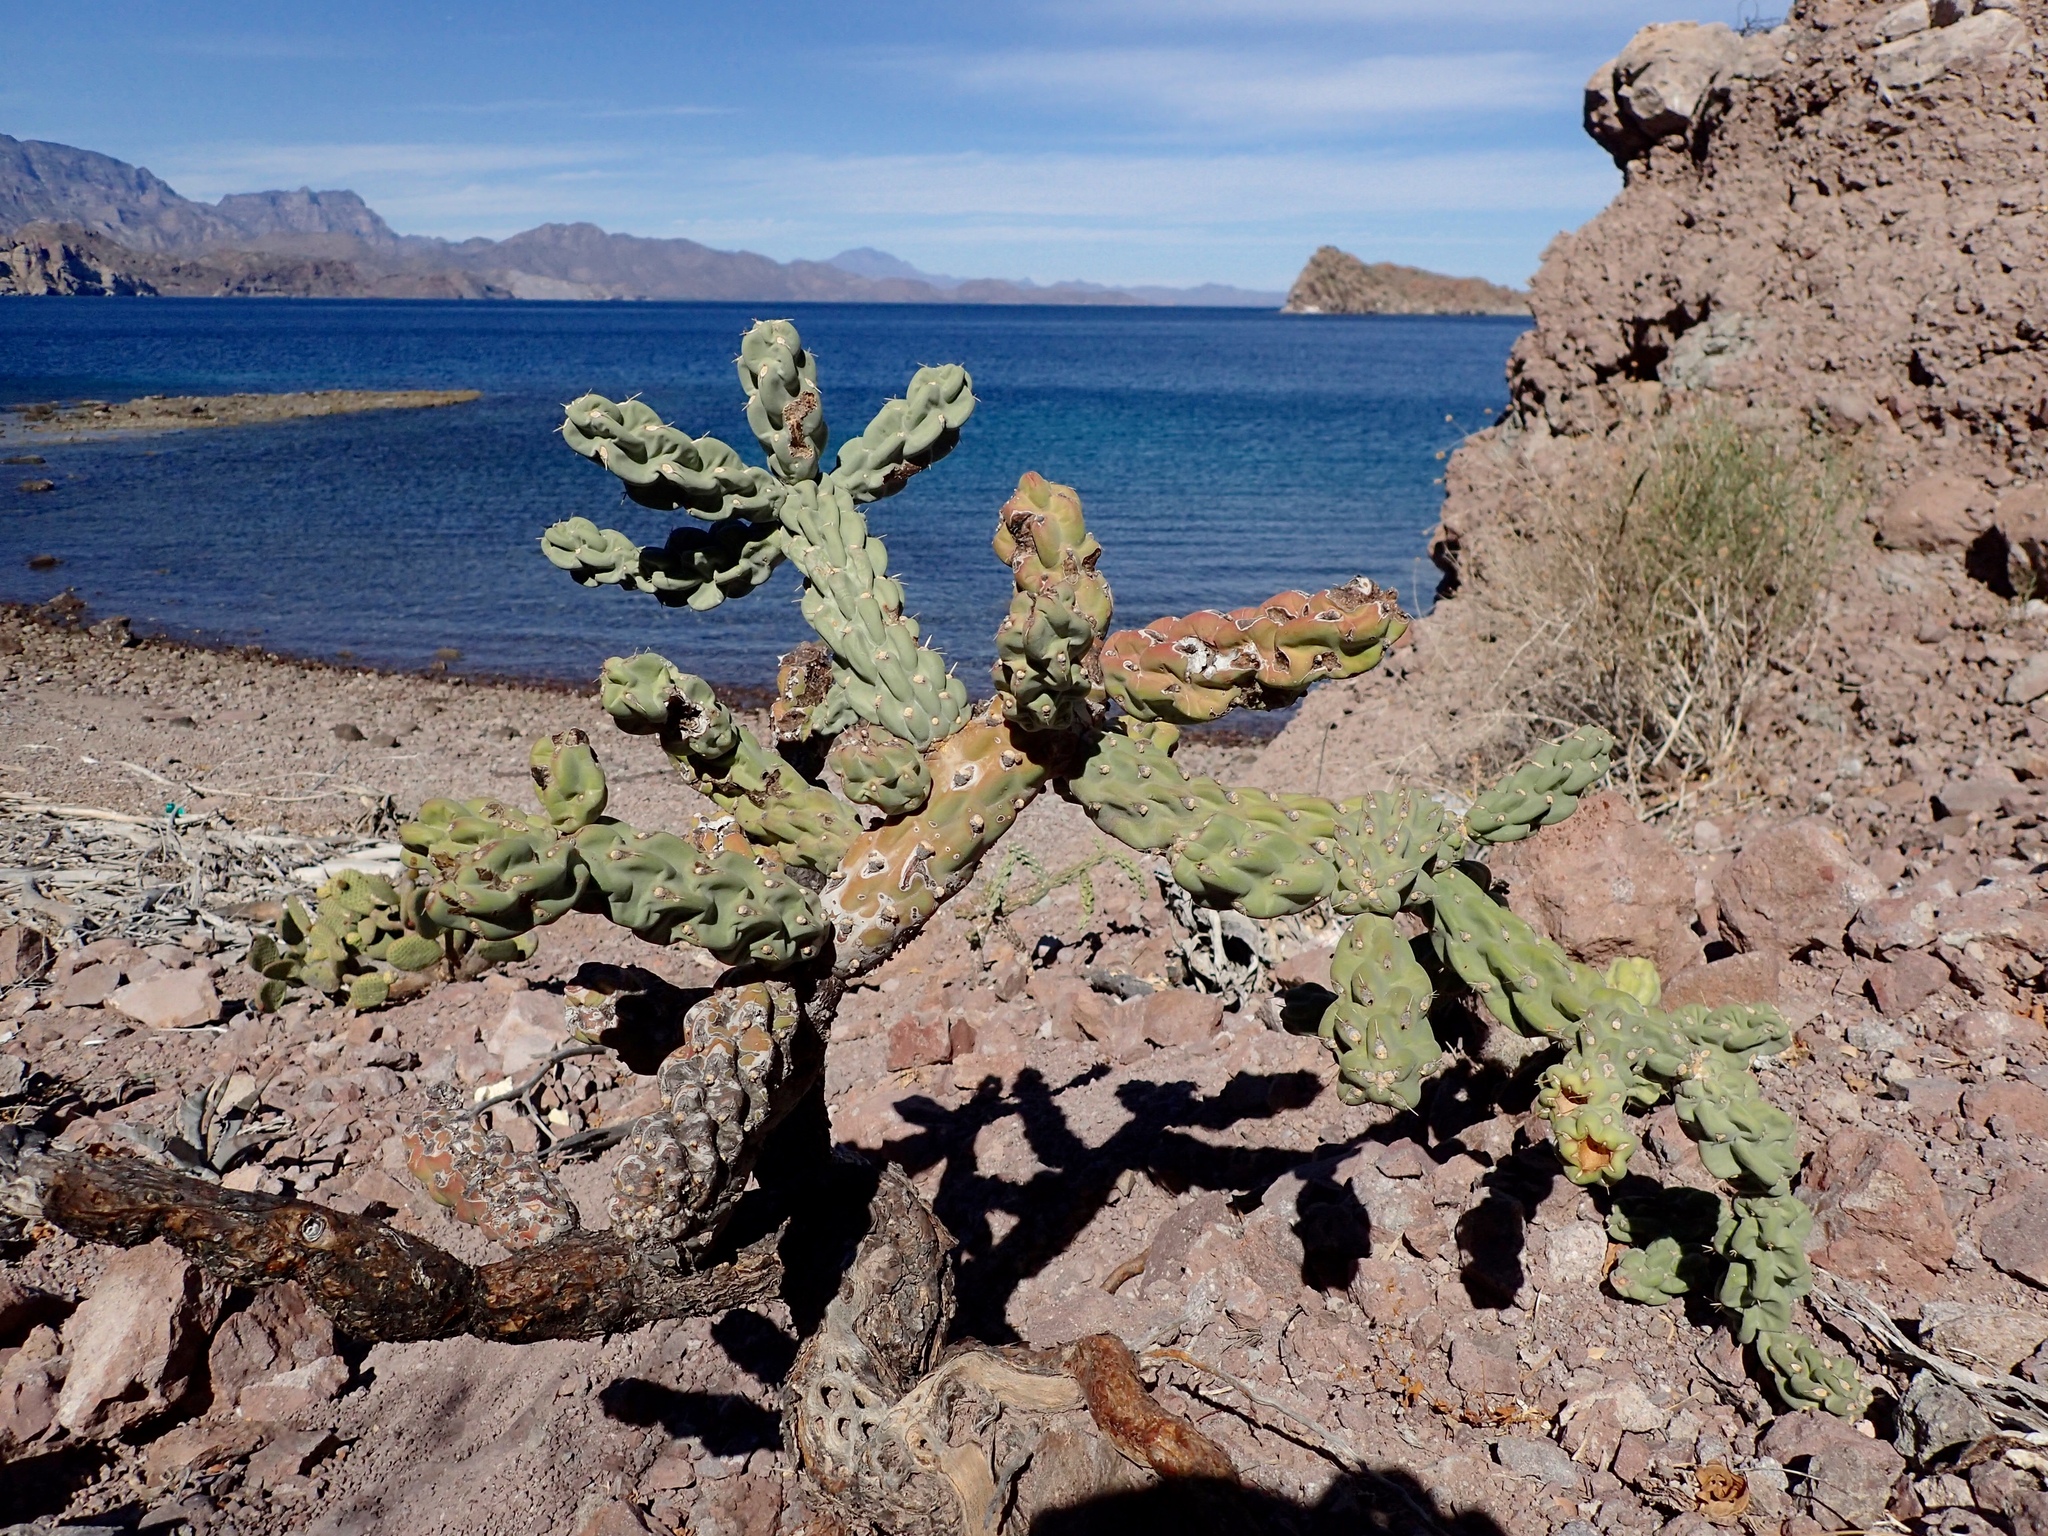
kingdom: Plantae
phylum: Tracheophyta
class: Magnoliopsida
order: Caryophyllales
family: Cactaceae
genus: Cylindropuntia
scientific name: Cylindropuntia cholla
